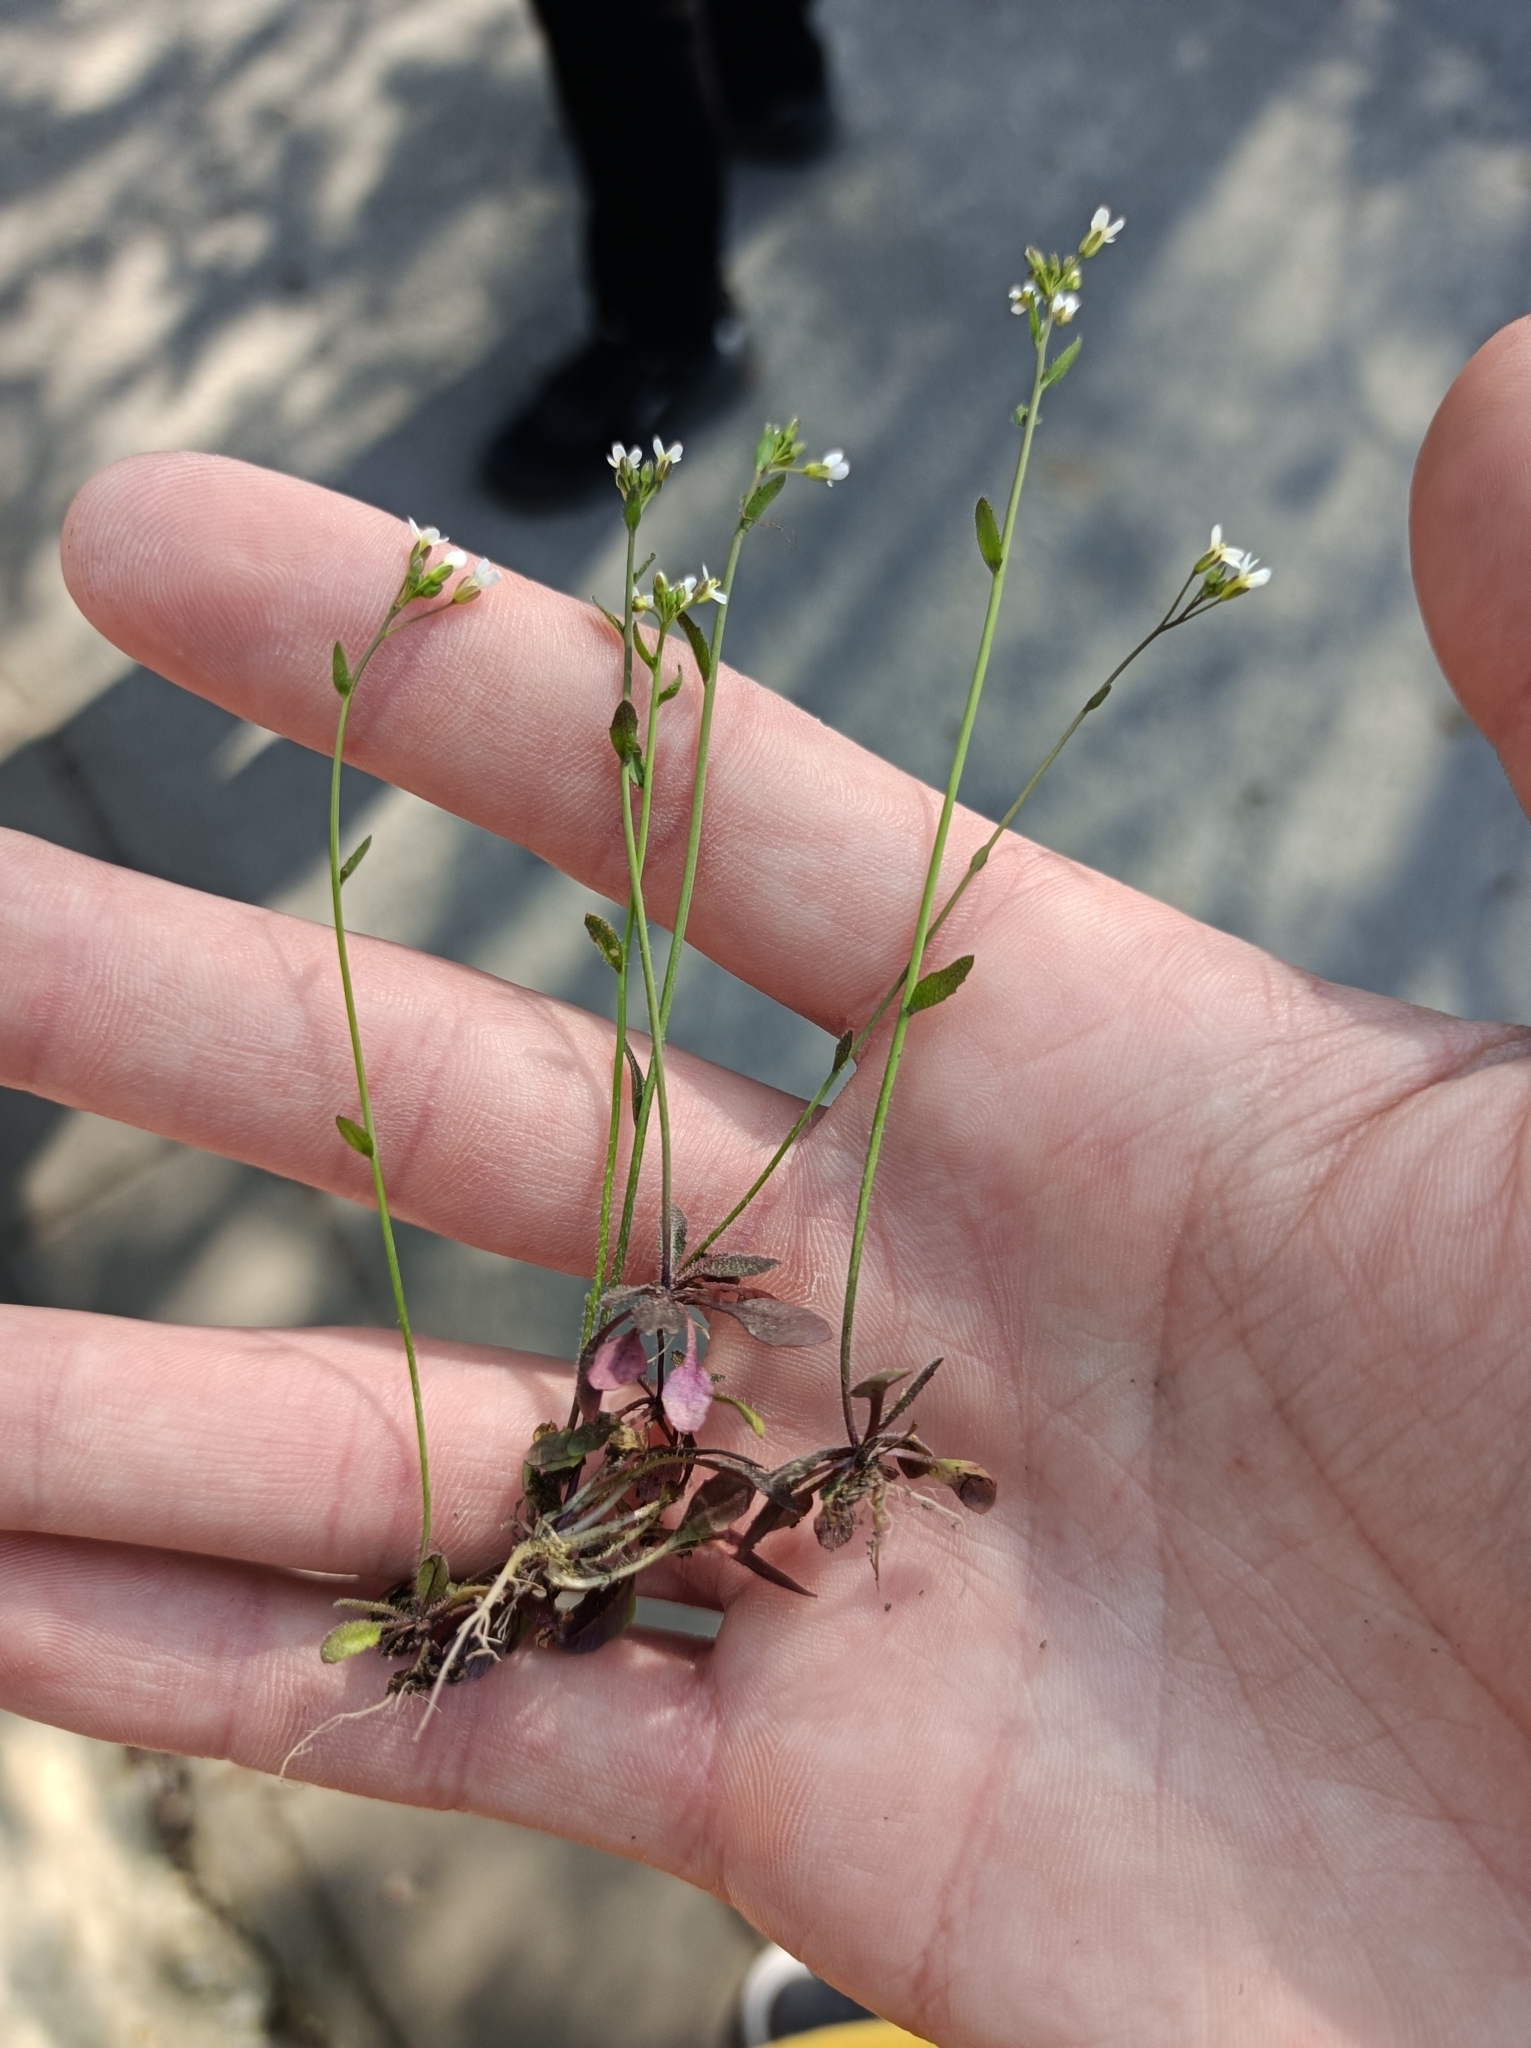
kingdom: Plantae
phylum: Tracheophyta
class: Magnoliopsida
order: Brassicales
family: Brassicaceae
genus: Arabidopsis
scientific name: Arabidopsis thaliana
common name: Thale cress
